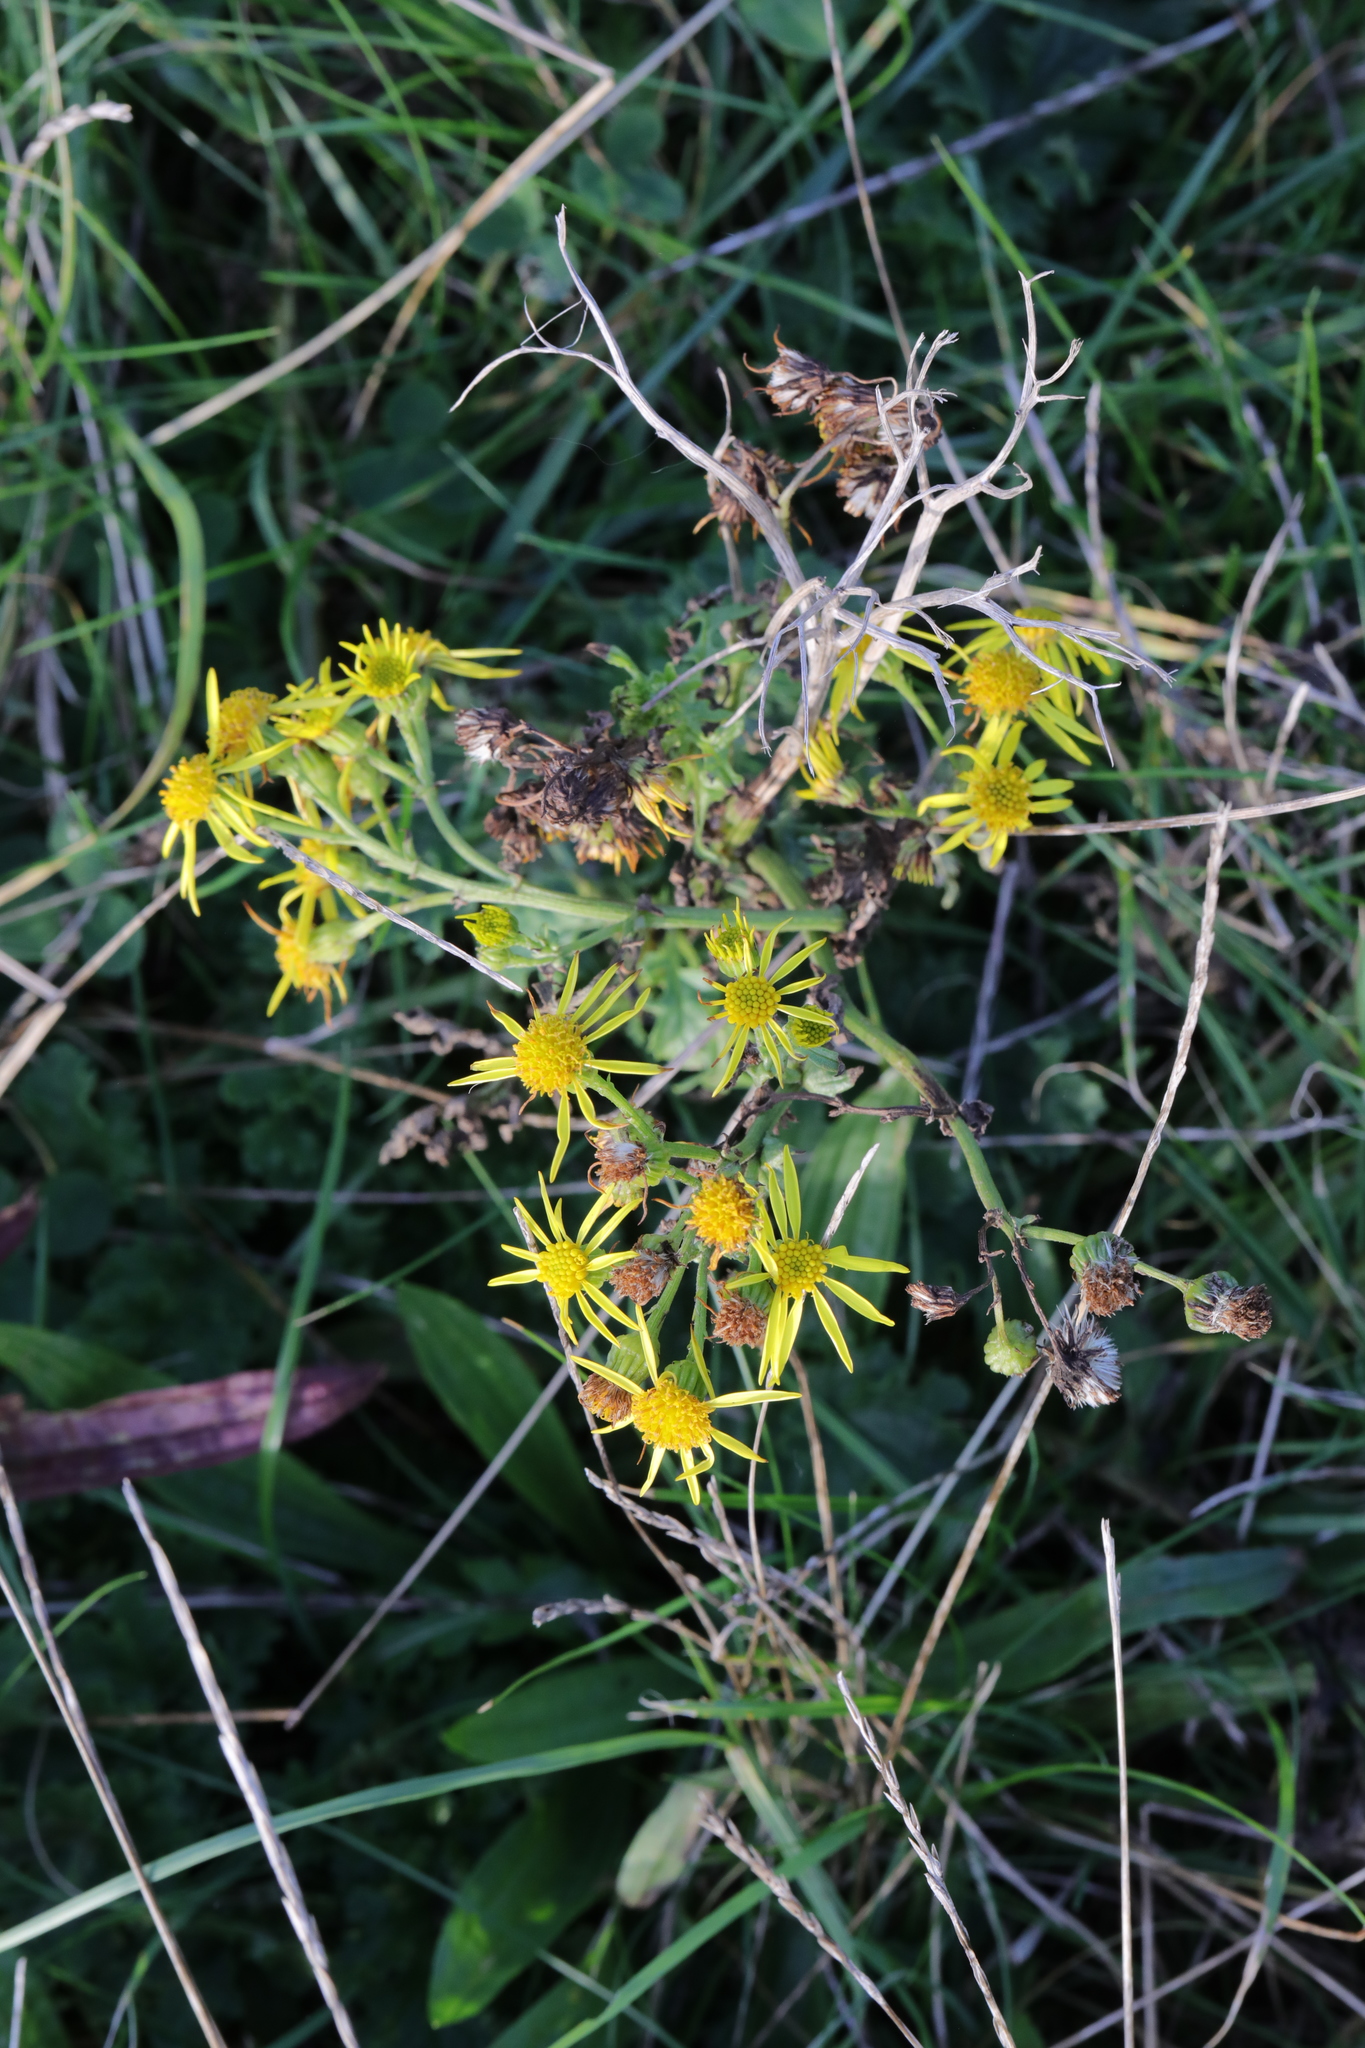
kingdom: Plantae
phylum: Tracheophyta
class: Magnoliopsida
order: Asterales
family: Asteraceae
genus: Jacobaea
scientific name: Jacobaea vulgaris
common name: Stinking willie
